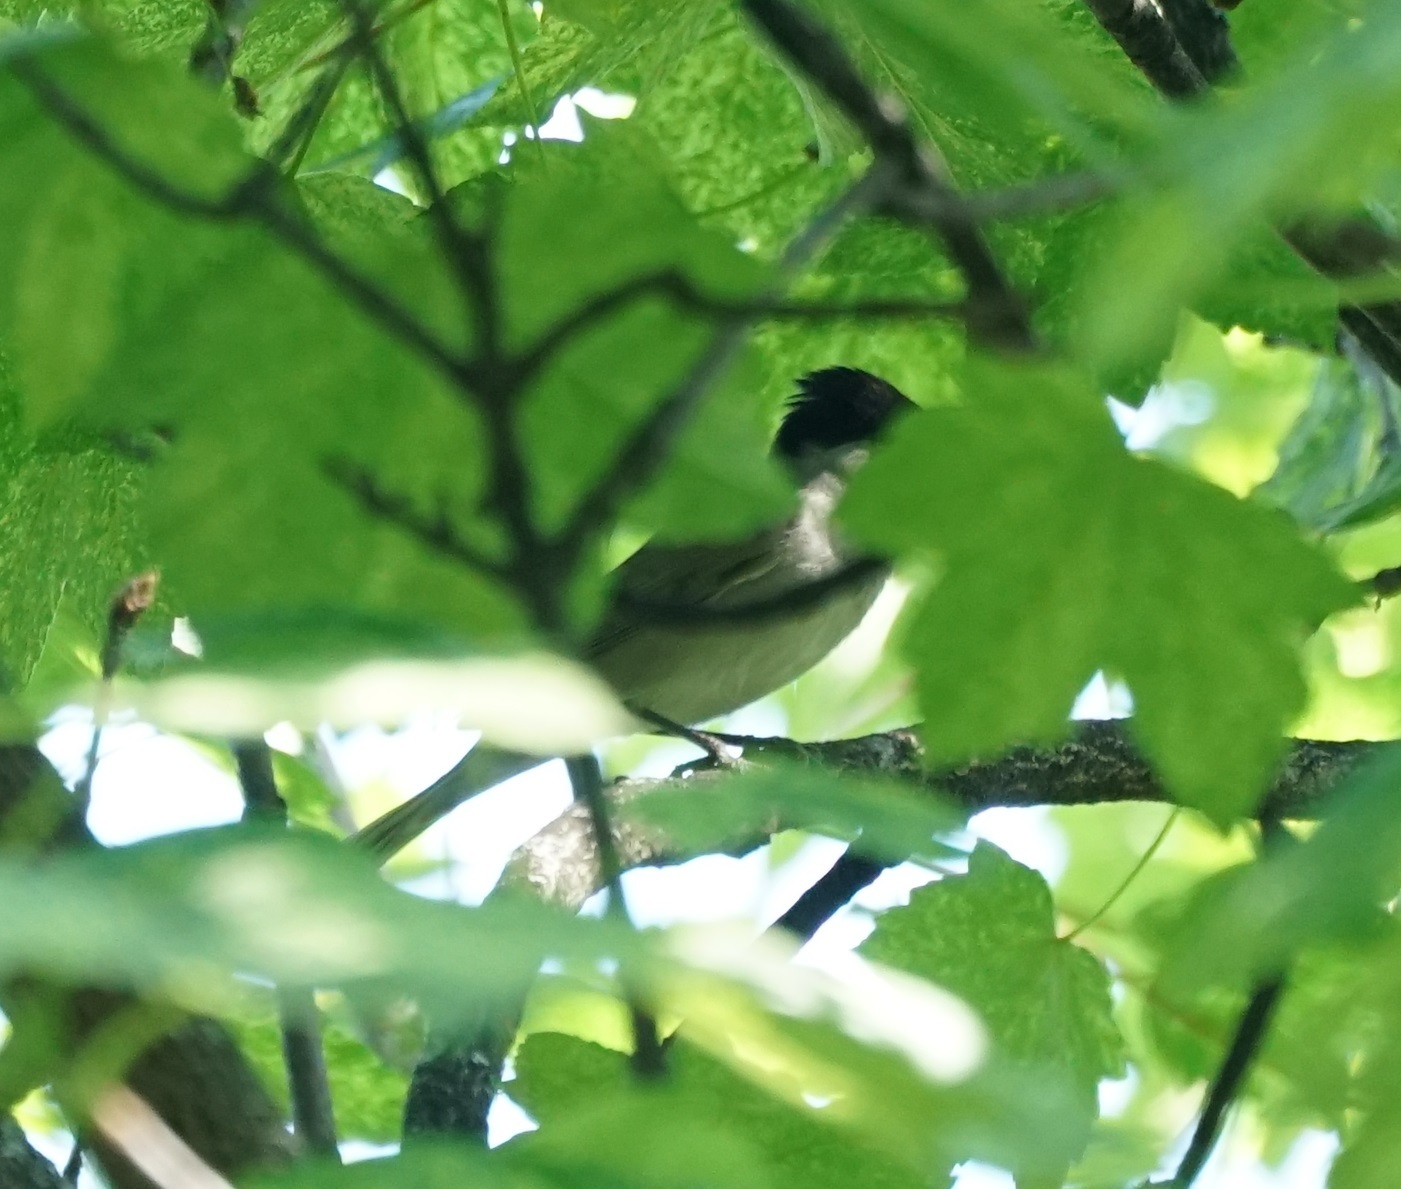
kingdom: Animalia
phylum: Chordata
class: Aves
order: Passeriformes
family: Sylviidae
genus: Sylvia
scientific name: Sylvia atricapilla
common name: Eurasian blackcap
